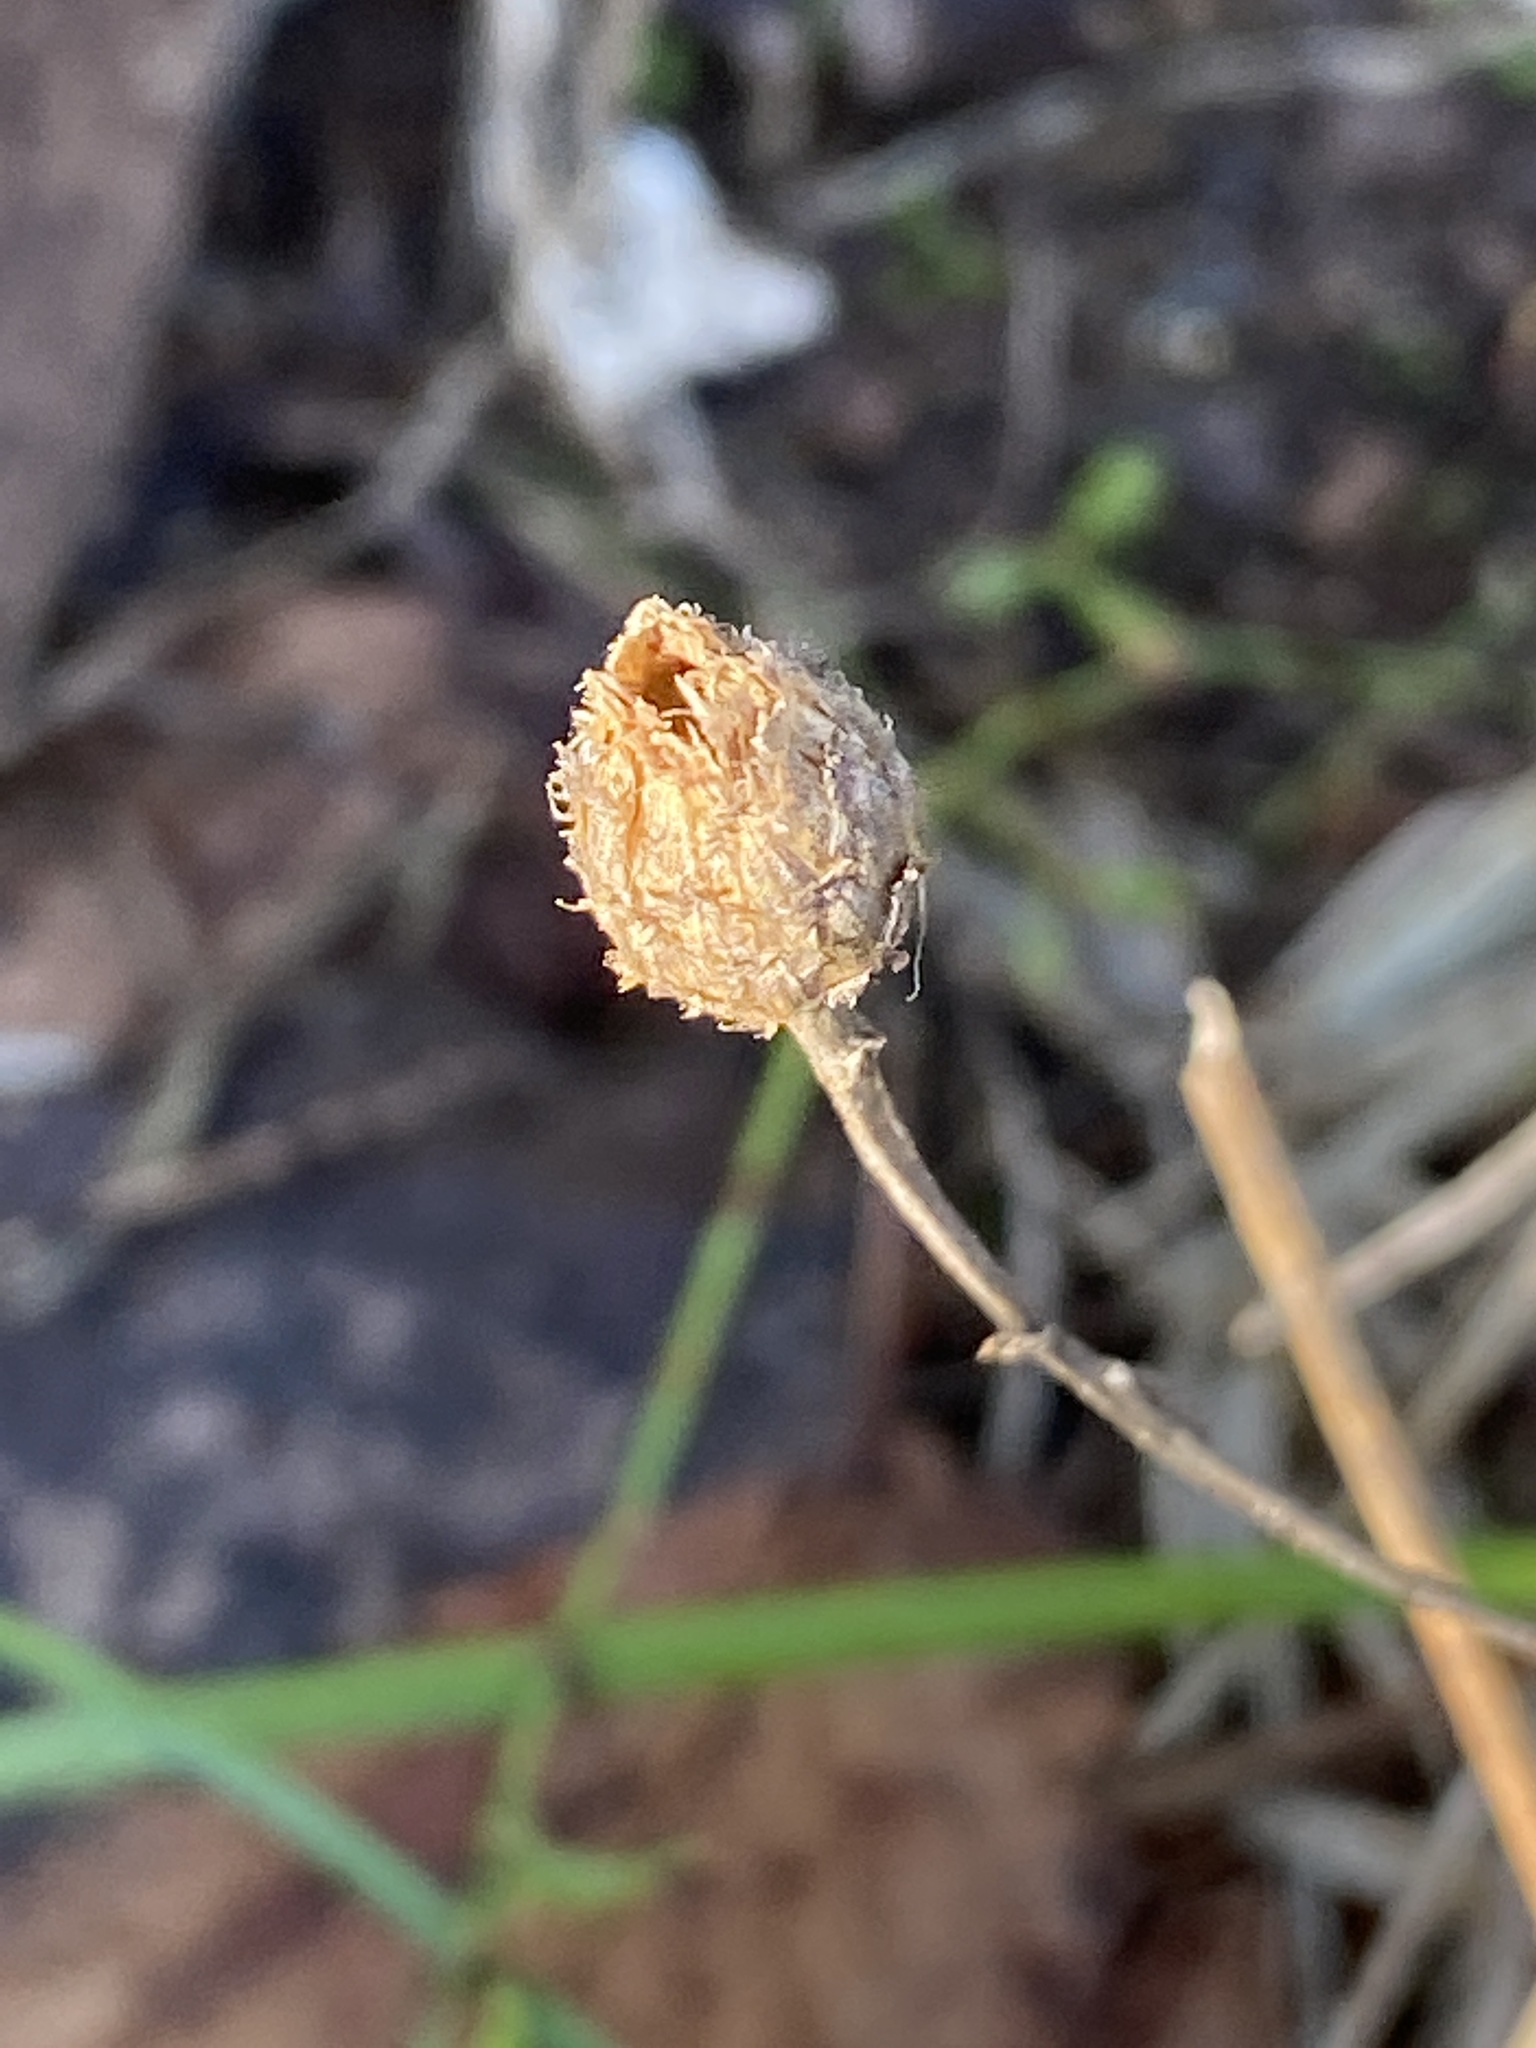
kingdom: Plantae
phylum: Tracheophyta
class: Magnoliopsida
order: Asterales
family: Asteraceae
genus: Centaurea
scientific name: Centaurea stoebe
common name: Spotted knapweed
